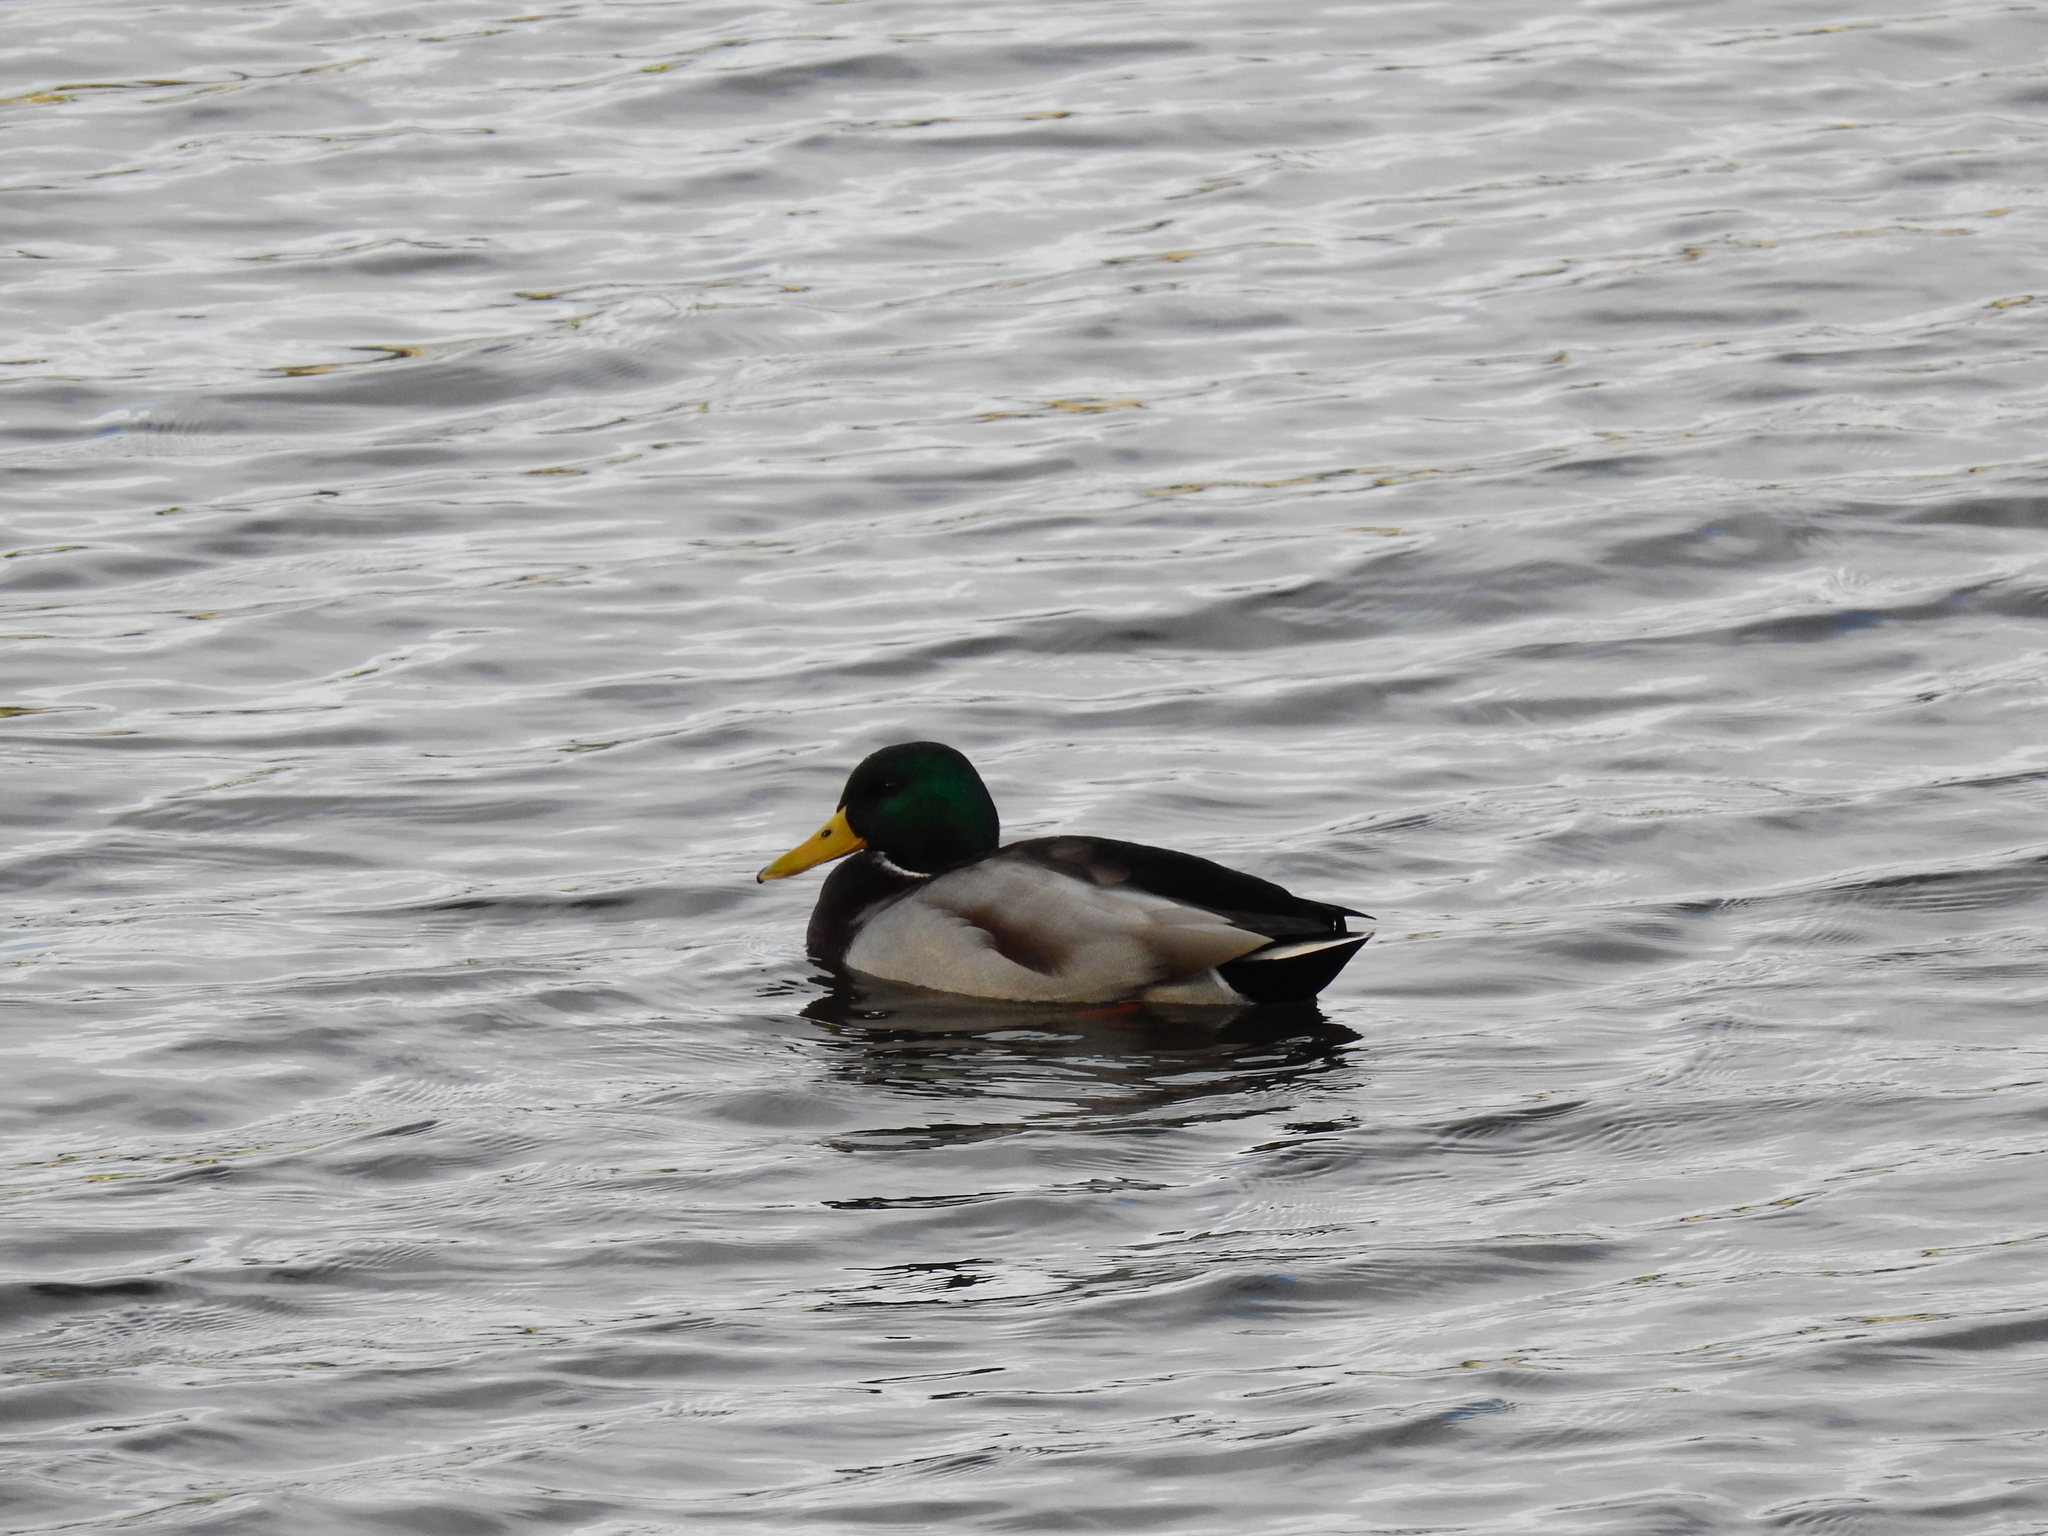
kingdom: Animalia
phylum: Chordata
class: Aves
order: Anseriformes
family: Anatidae
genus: Anas
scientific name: Anas platyrhynchos
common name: Mallard
